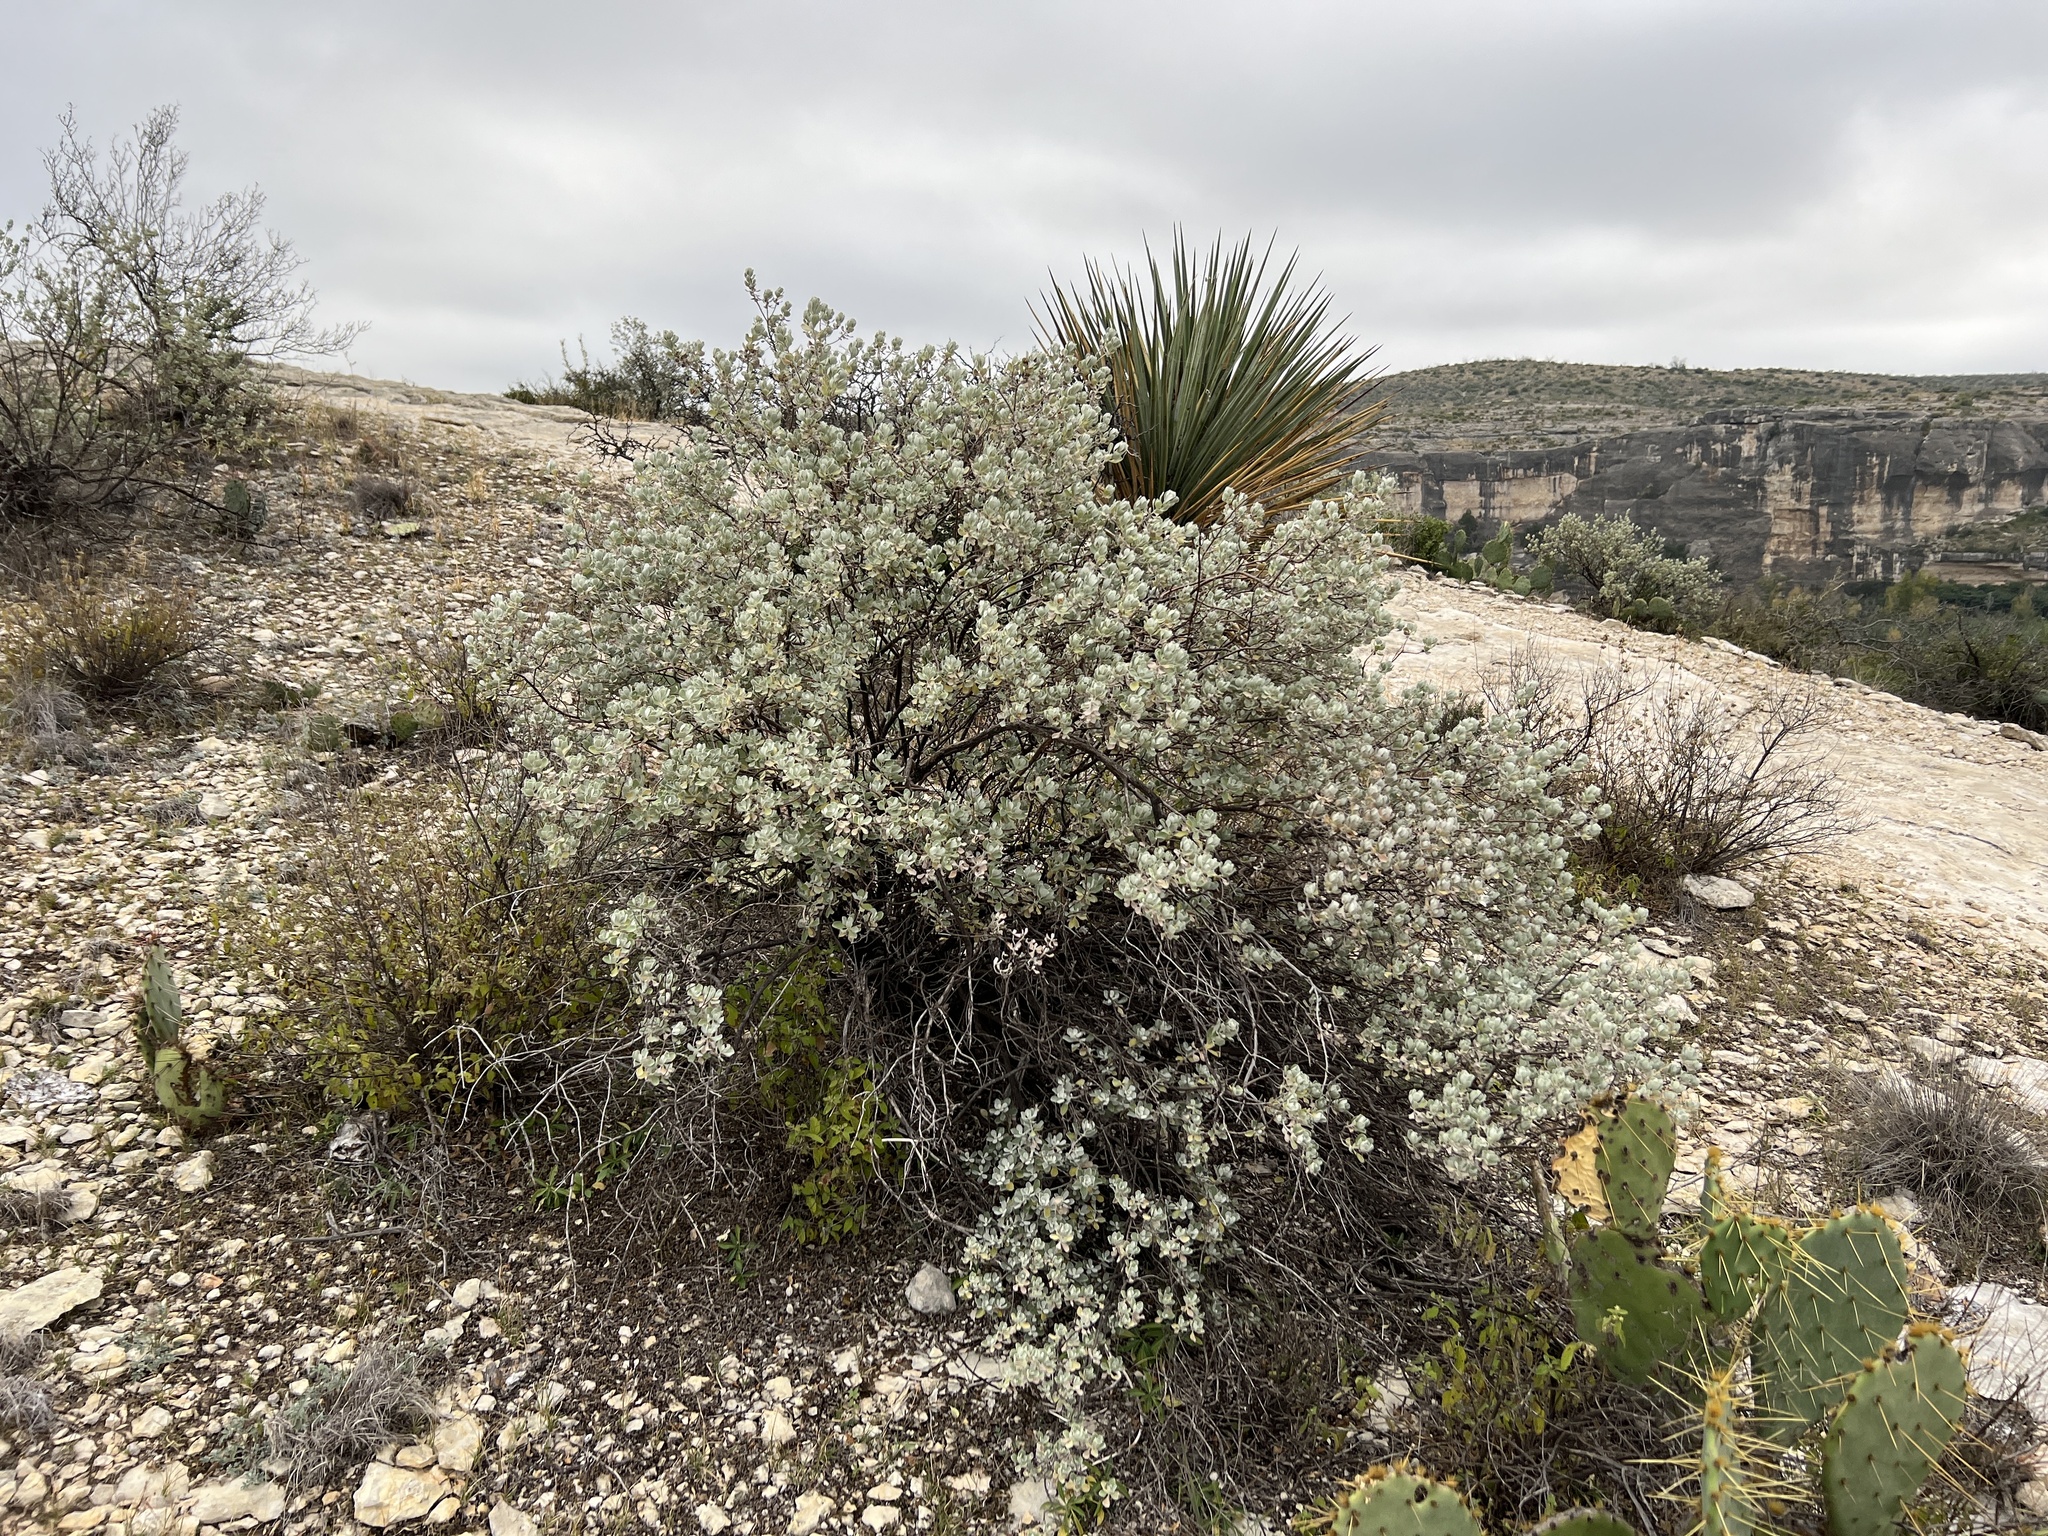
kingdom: Plantae
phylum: Tracheophyta
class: Magnoliopsida
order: Lamiales
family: Scrophulariaceae
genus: Leucophyllum
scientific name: Leucophyllum frutescens
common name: Texas silverleaf
